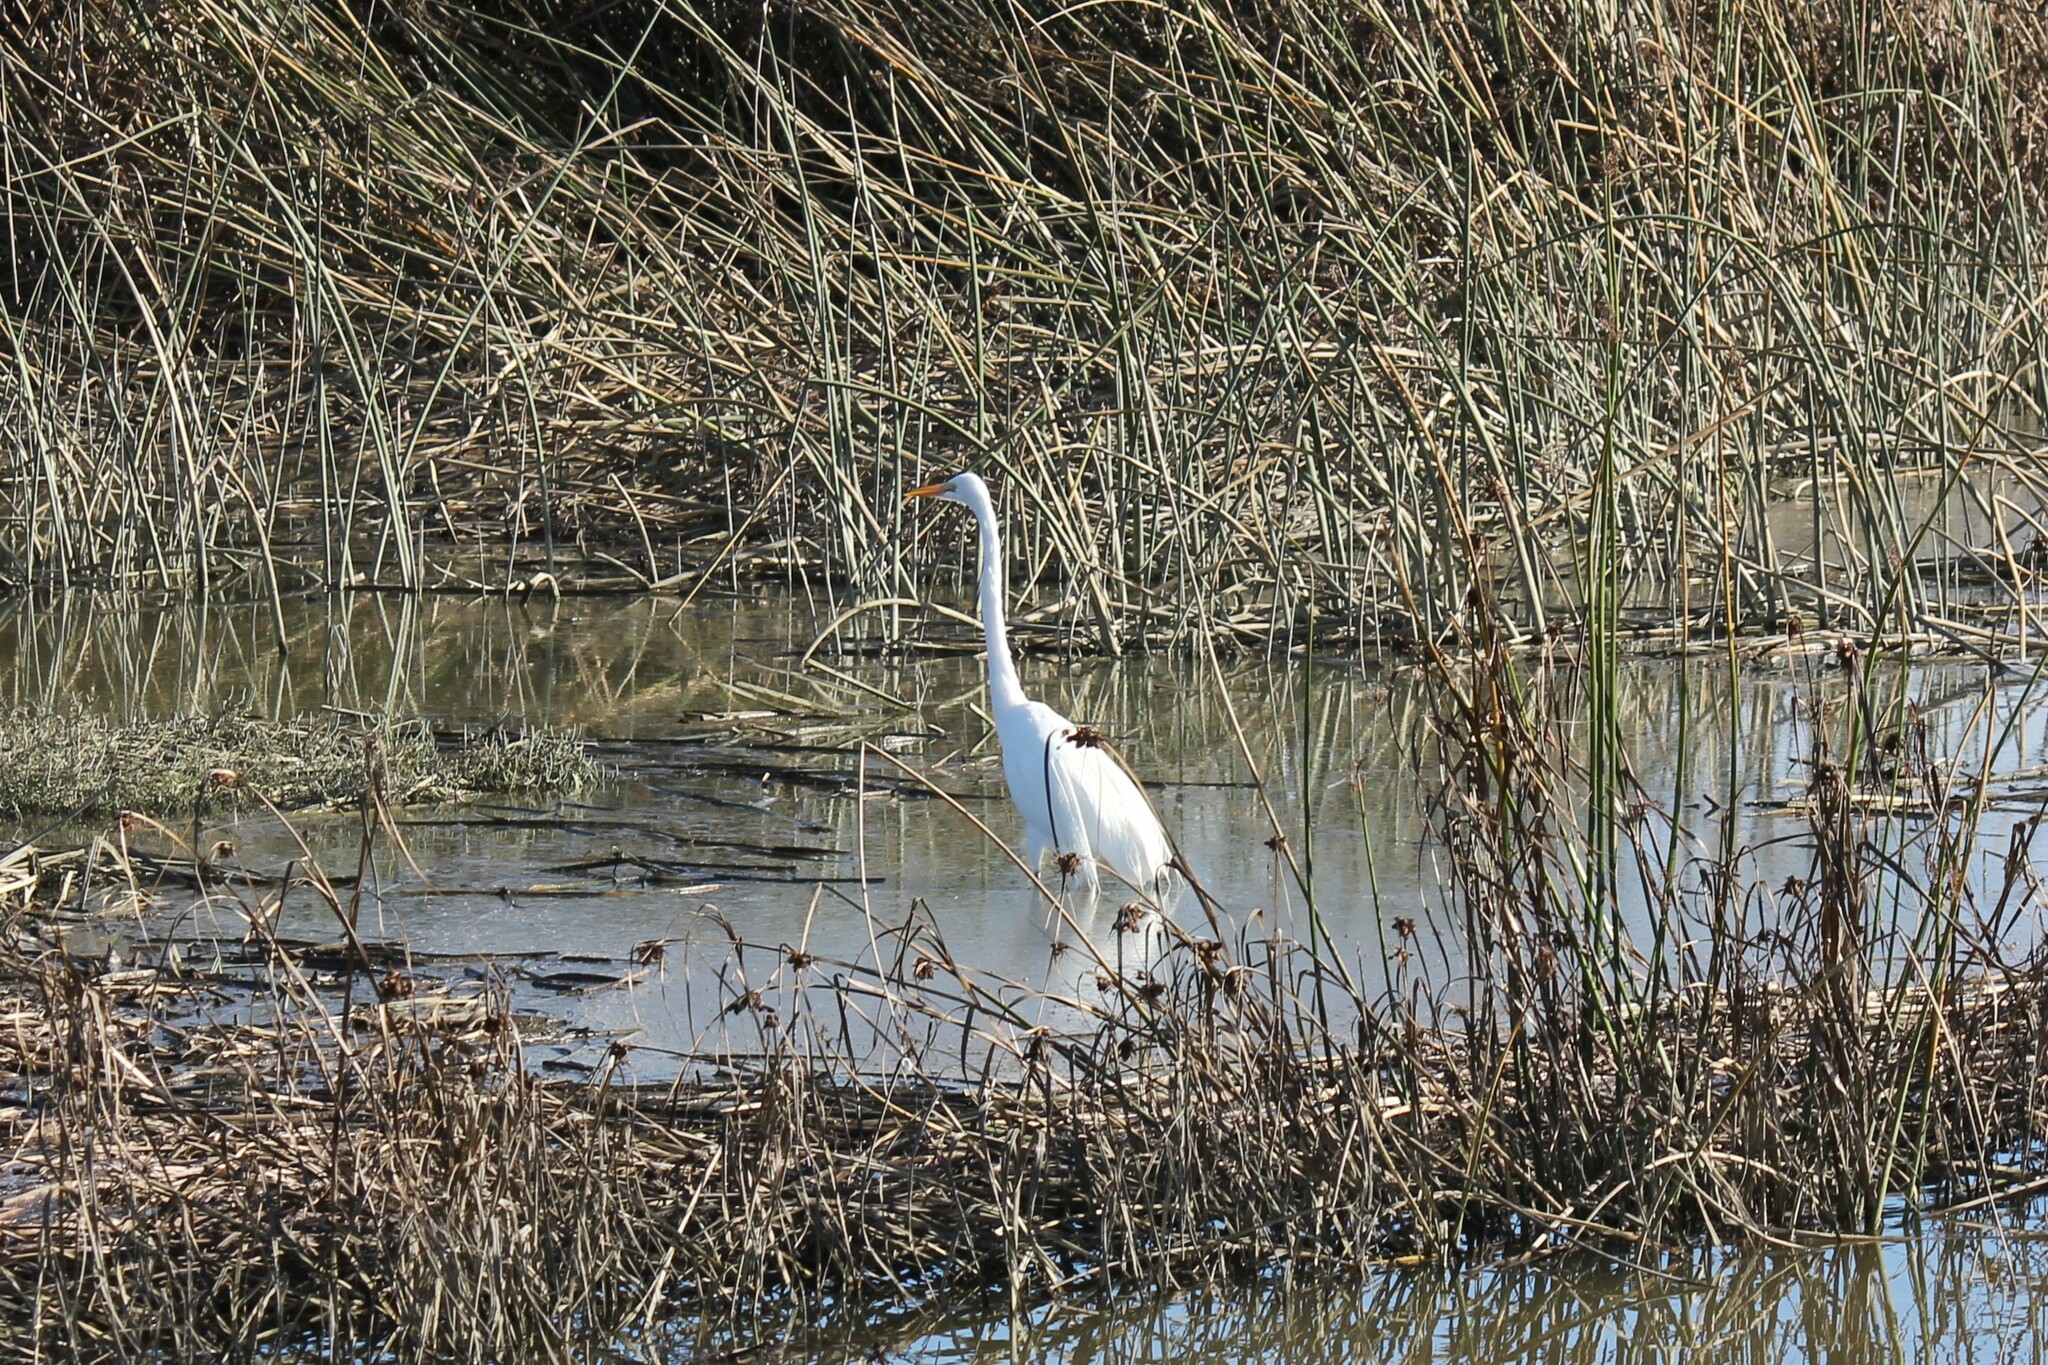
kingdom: Animalia
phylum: Chordata
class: Aves
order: Pelecaniformes
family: Ardeidae
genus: Ardea
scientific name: Ardea alba
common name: Great egret
